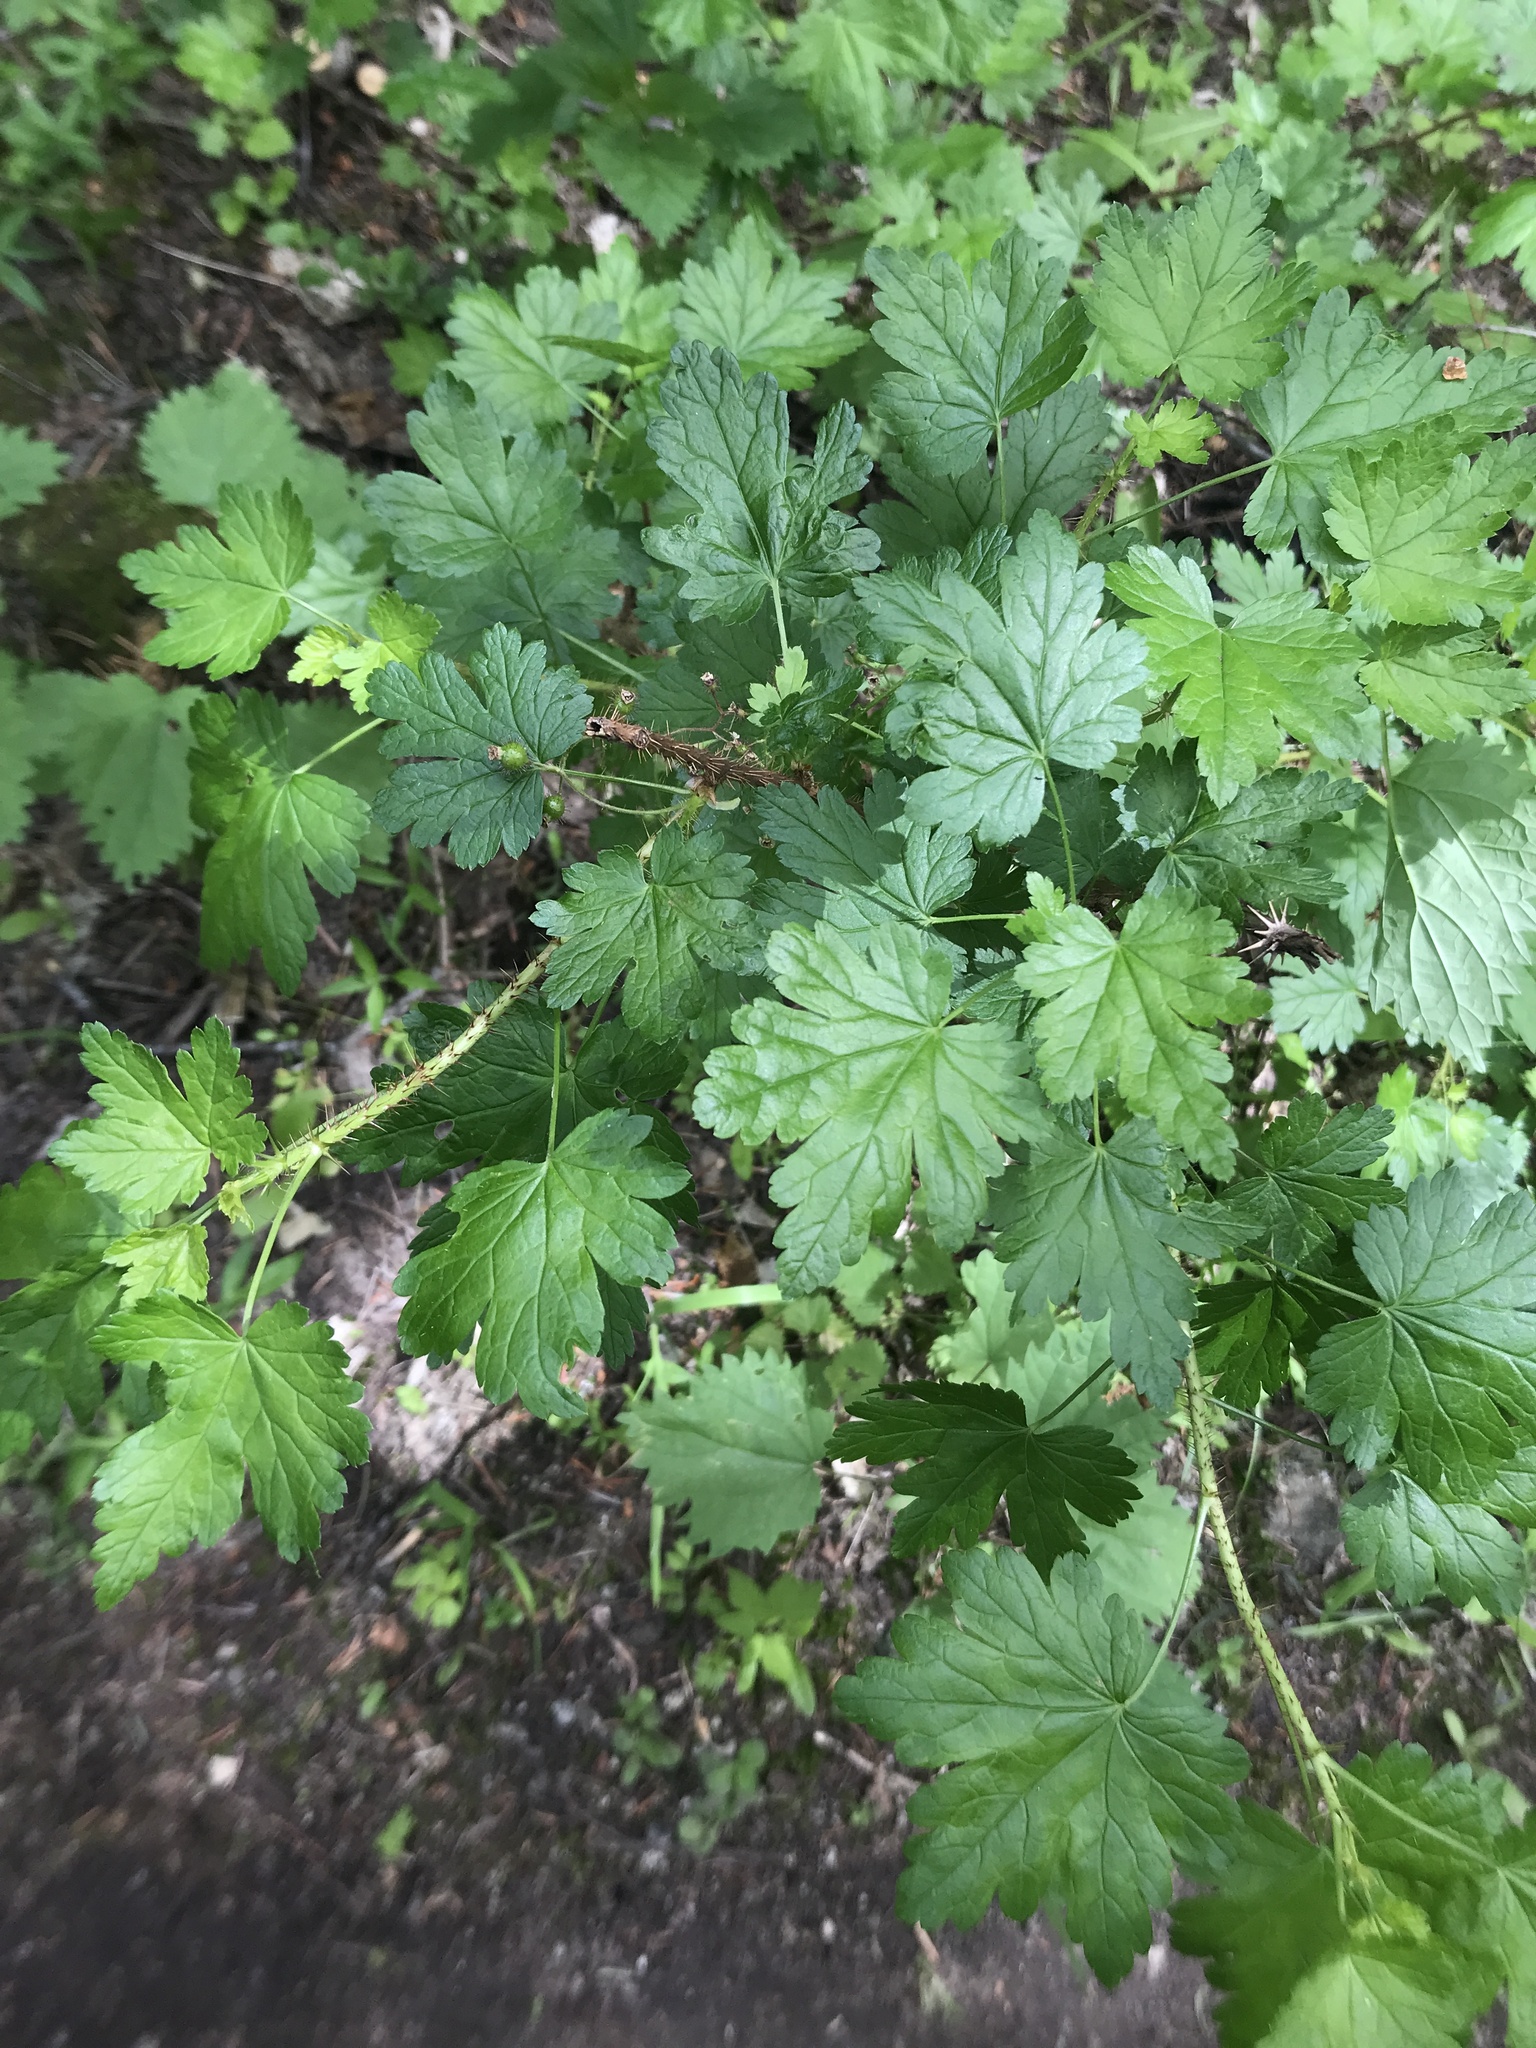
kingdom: Plantae
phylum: Tracheophyta
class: Magnoliopsida
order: Saxifragales
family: Grossulariaceae
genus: Ribes
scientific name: Ribes lacustre
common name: Black gooseberry
